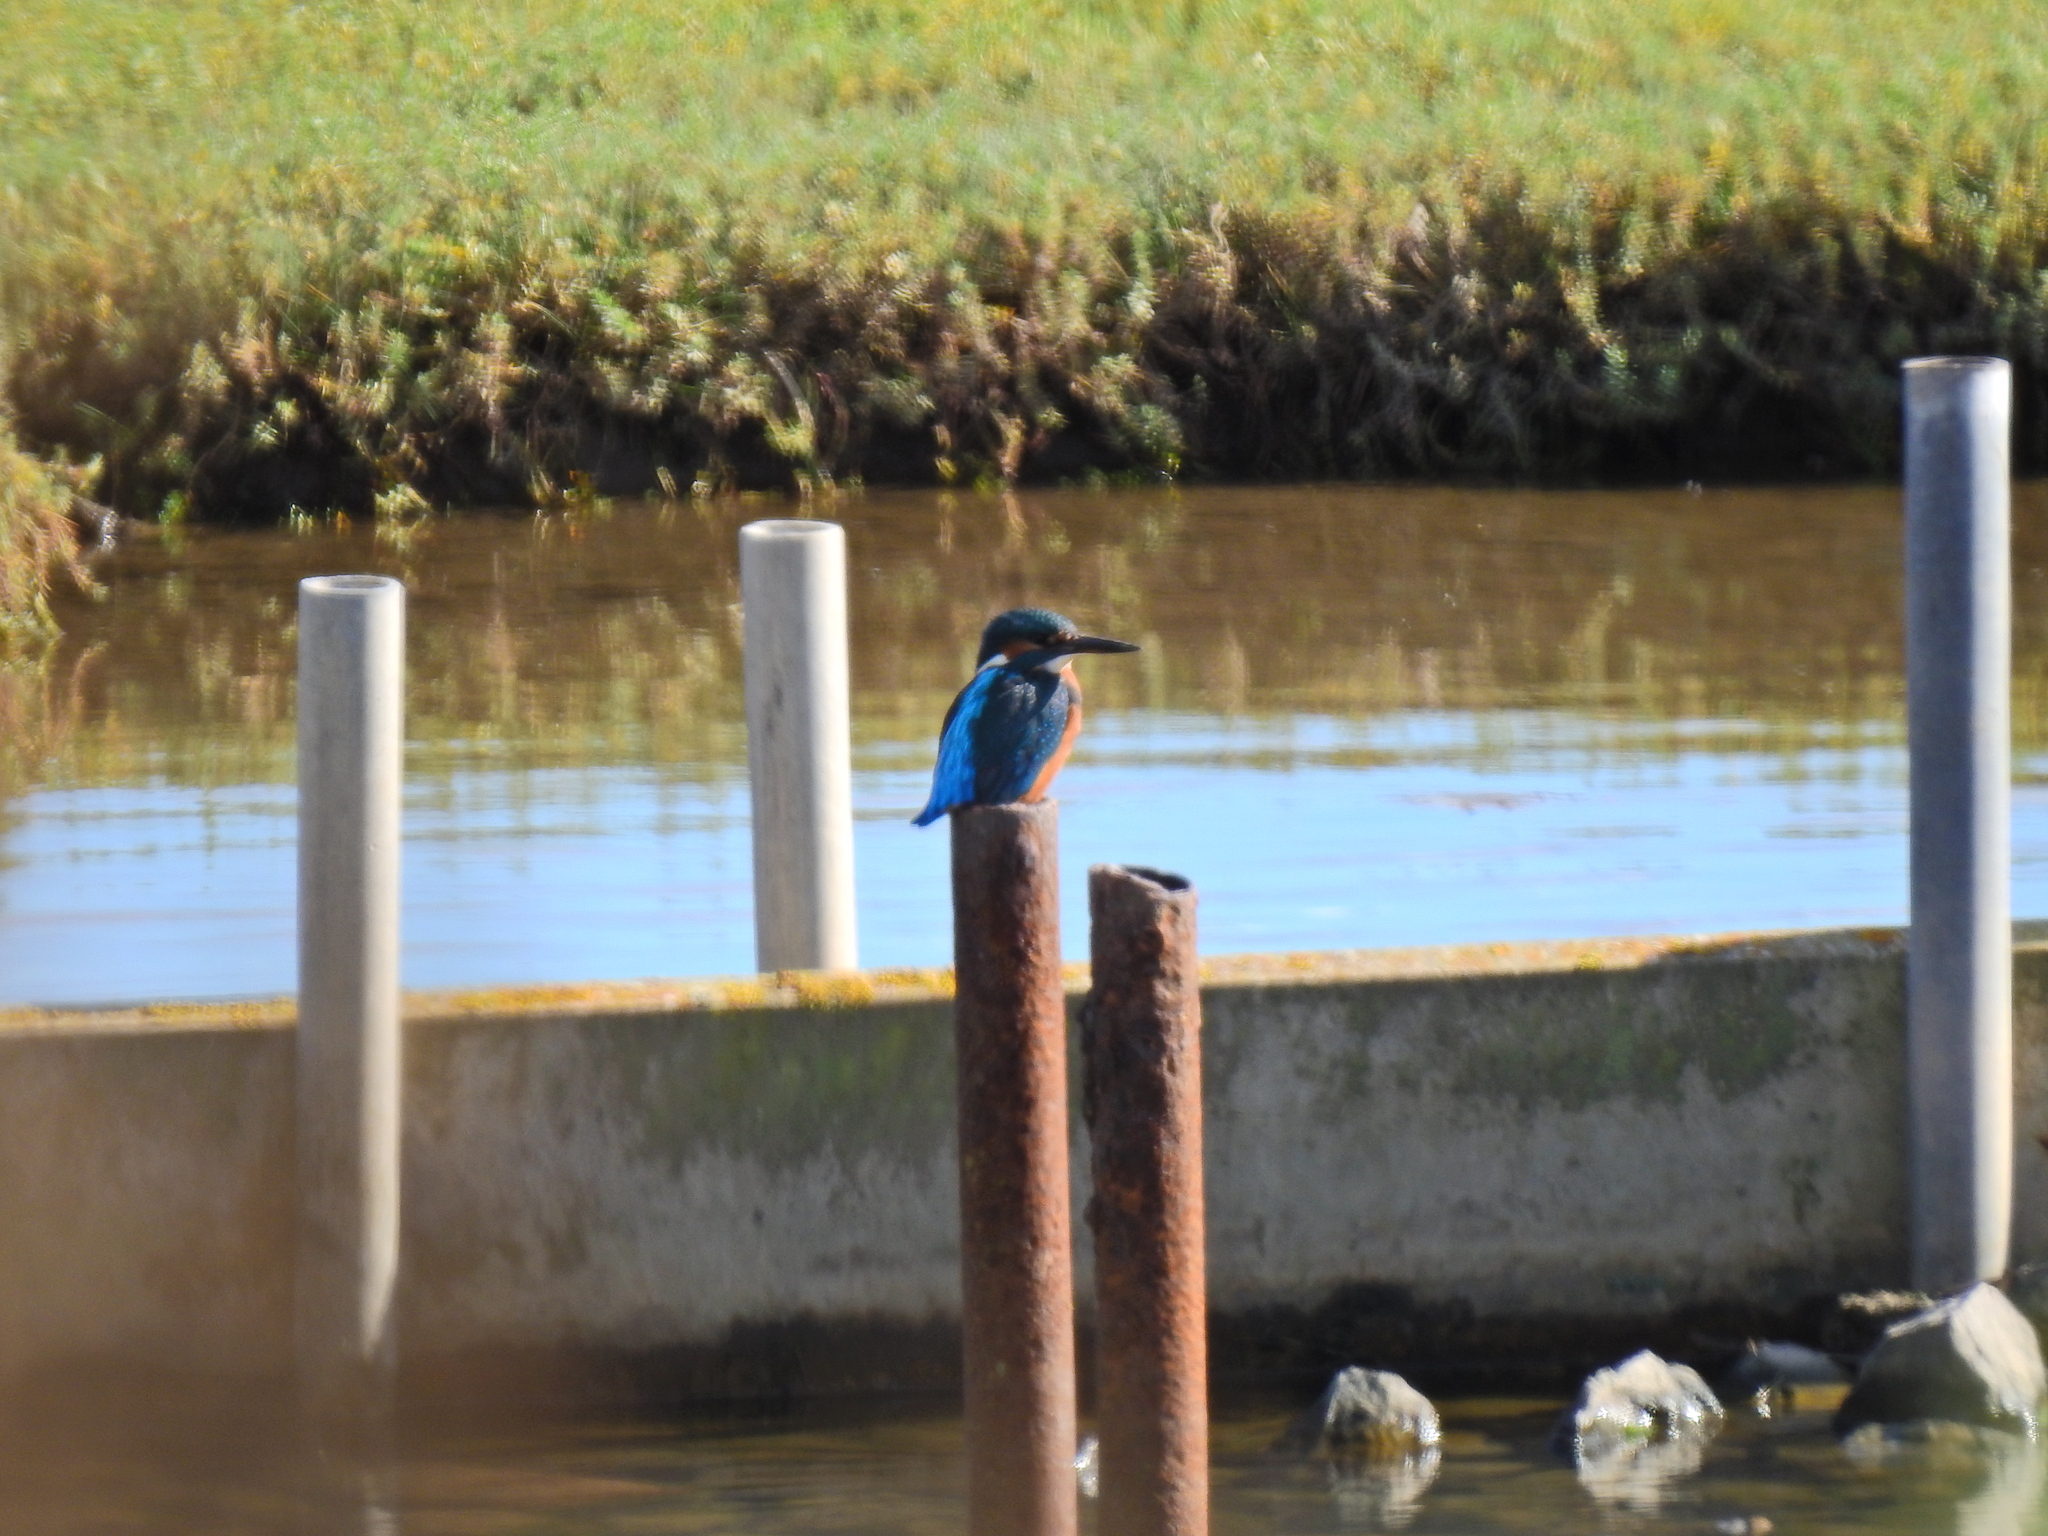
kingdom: Animalia
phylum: Chordata
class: Aves
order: Coraciiformes
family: Alcedinidae
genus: Alcedo
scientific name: Alcedo atthis
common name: Common kingfisher
